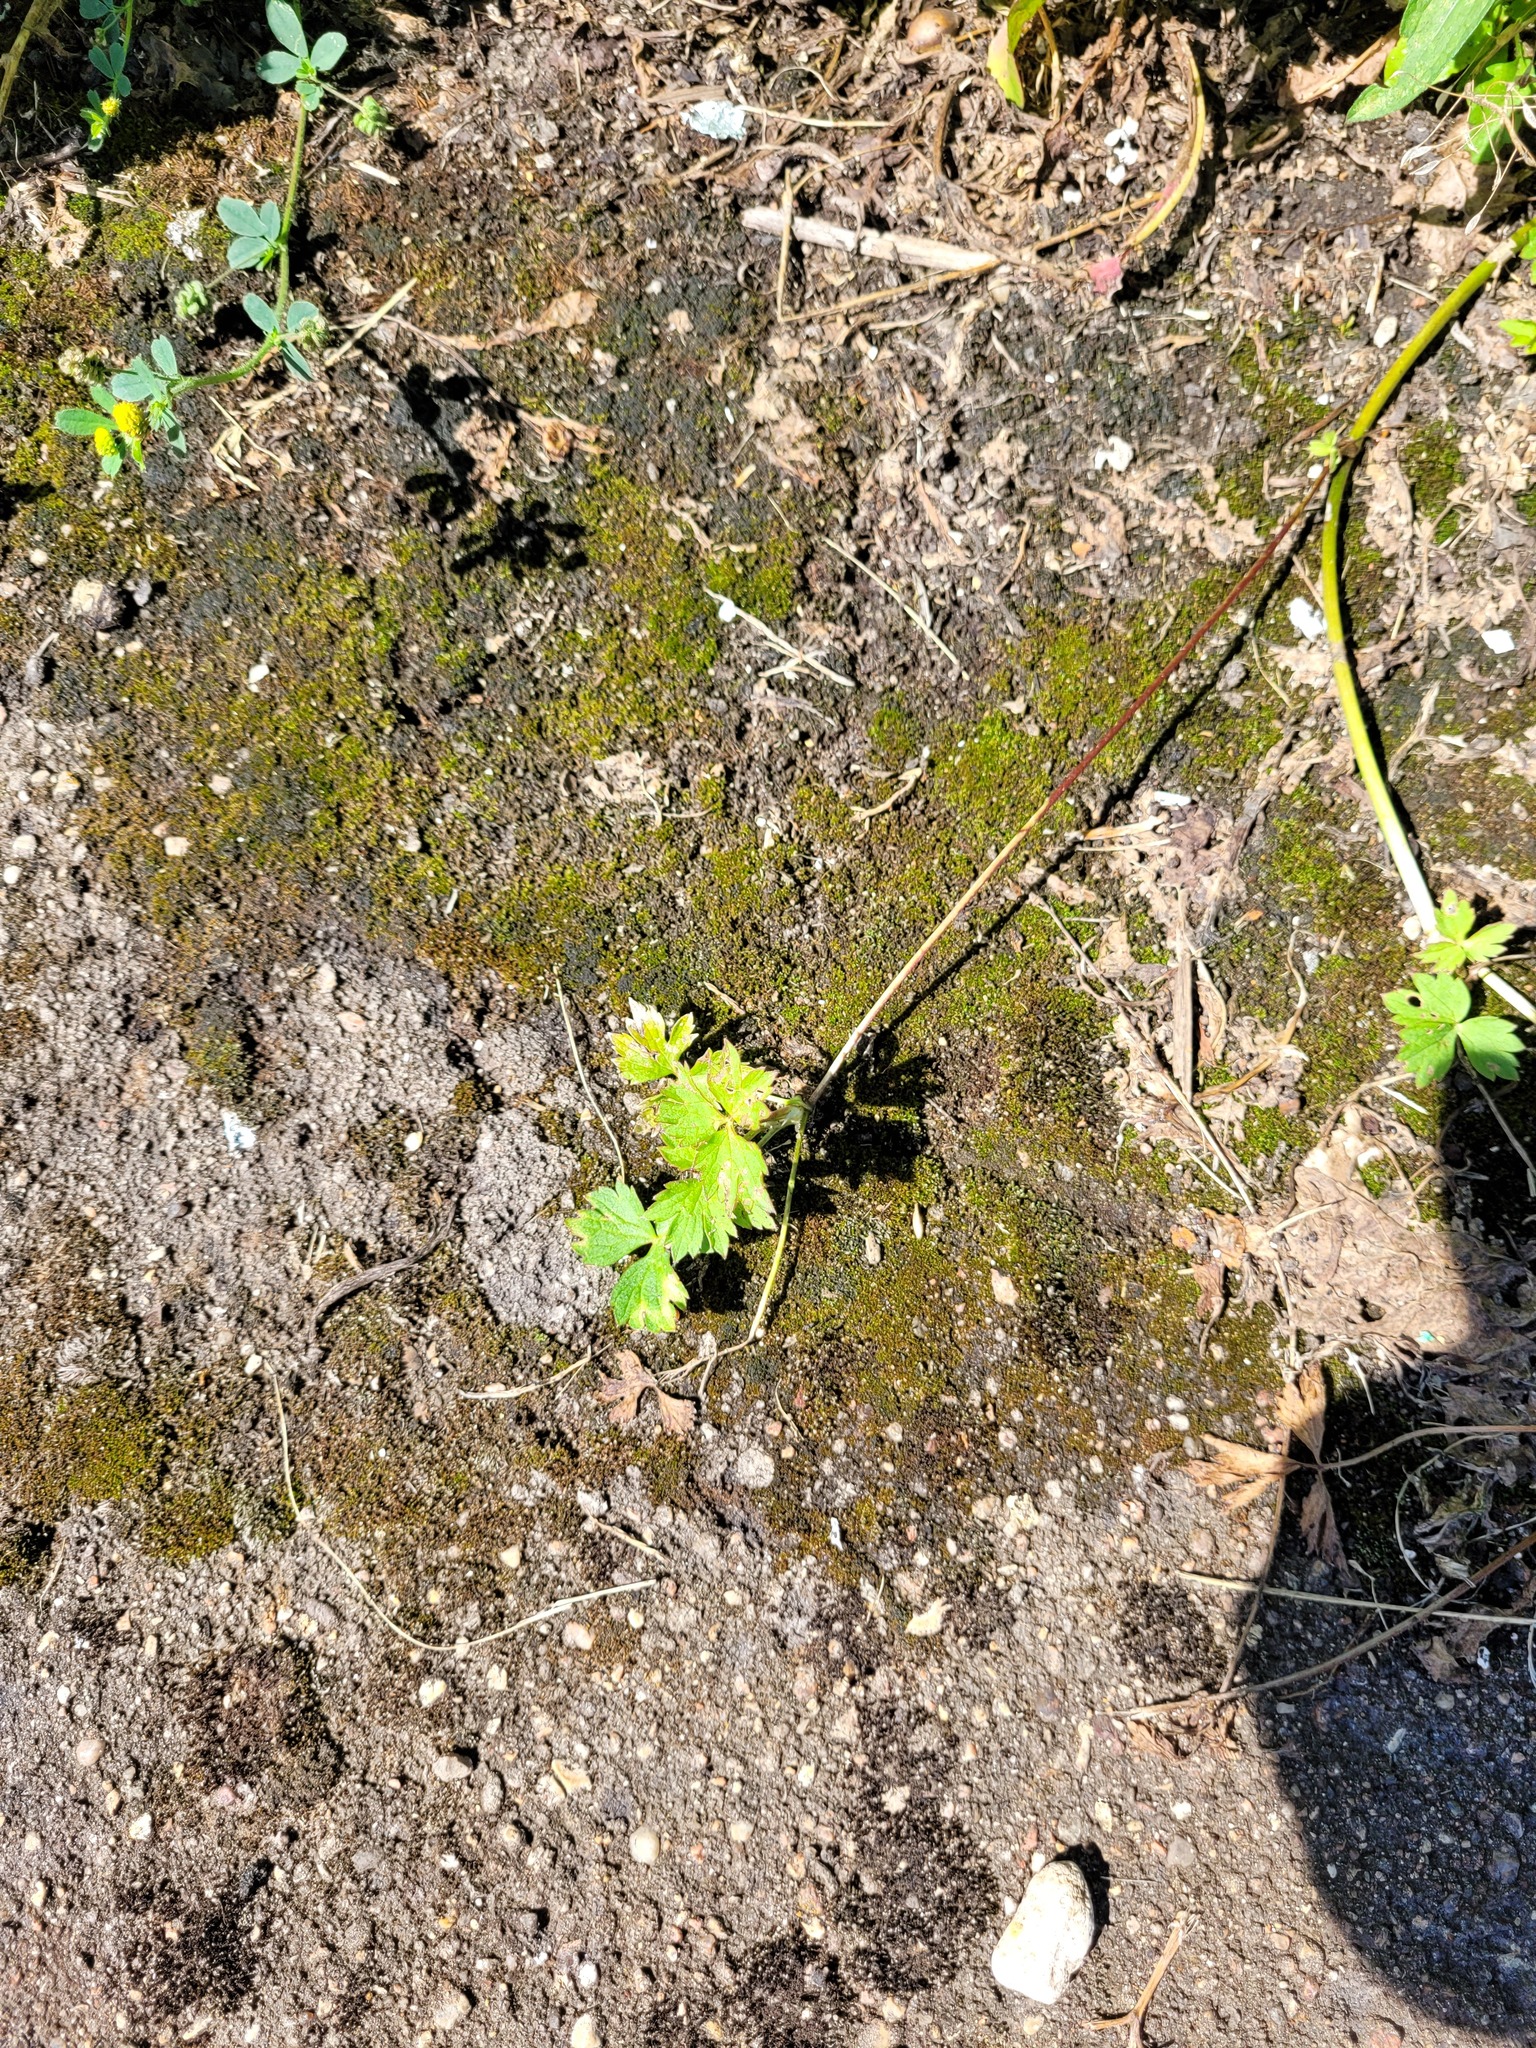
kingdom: Plantae
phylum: Tracheophyta
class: Magnoliopsida
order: Ranunculales
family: Ranunculaceae
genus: Ranunculus
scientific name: Ranunculus repens
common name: Creeping buttercup
